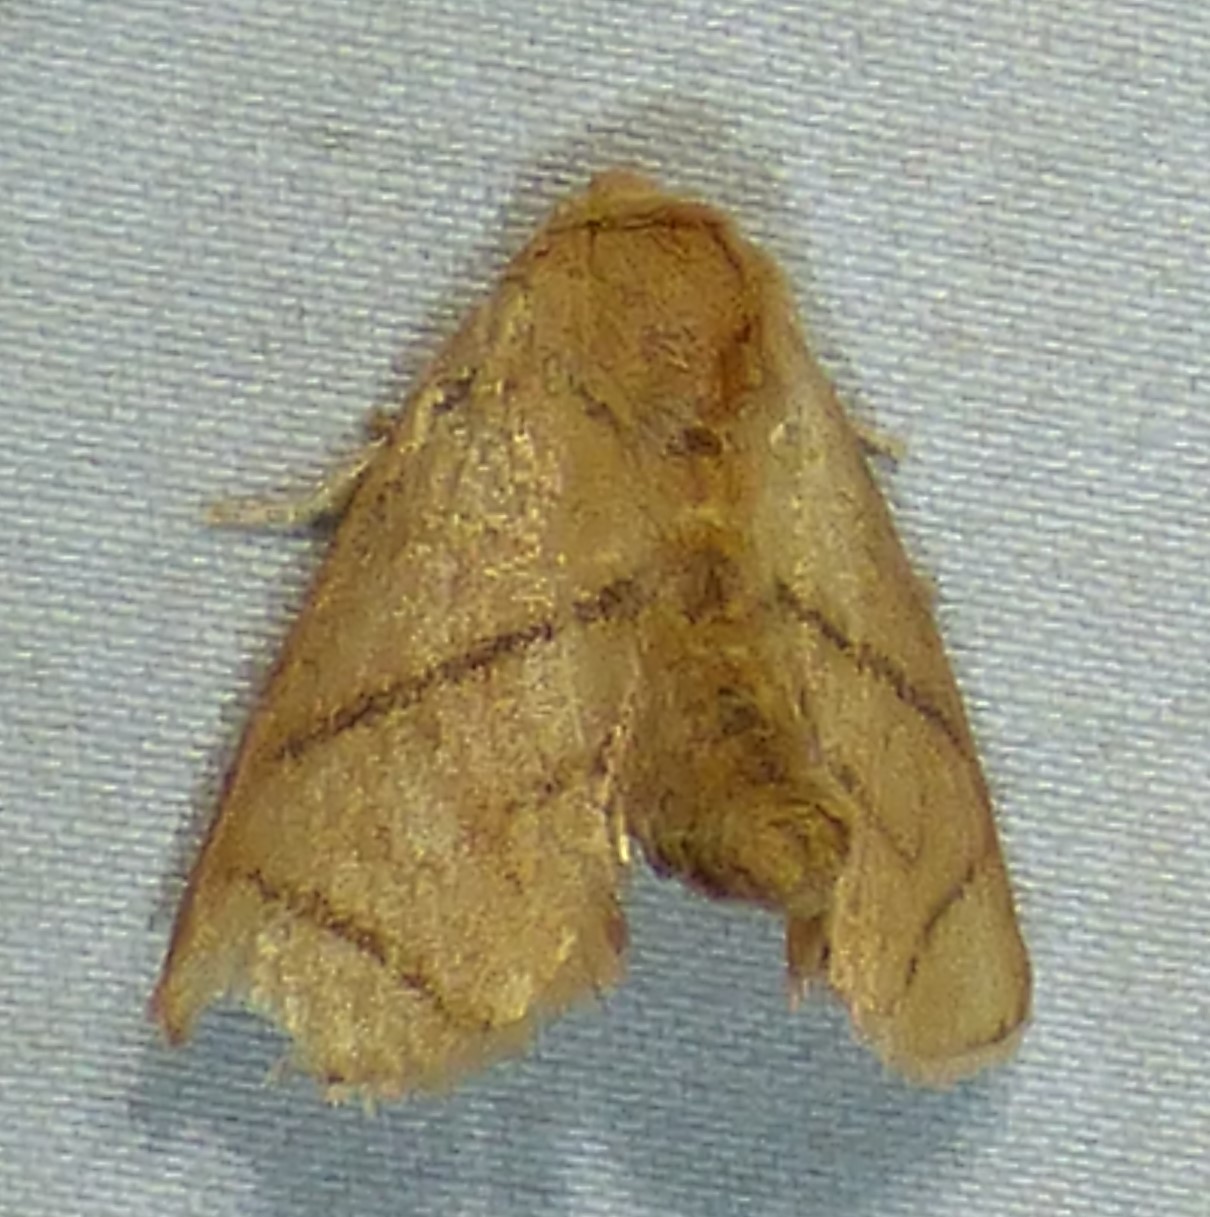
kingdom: Animalia
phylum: Arthropoda
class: Insecta
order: Lepidoptera
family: Limacodidae
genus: Apoda
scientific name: Apoda y-inversa
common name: Yellow-collared slug moth
